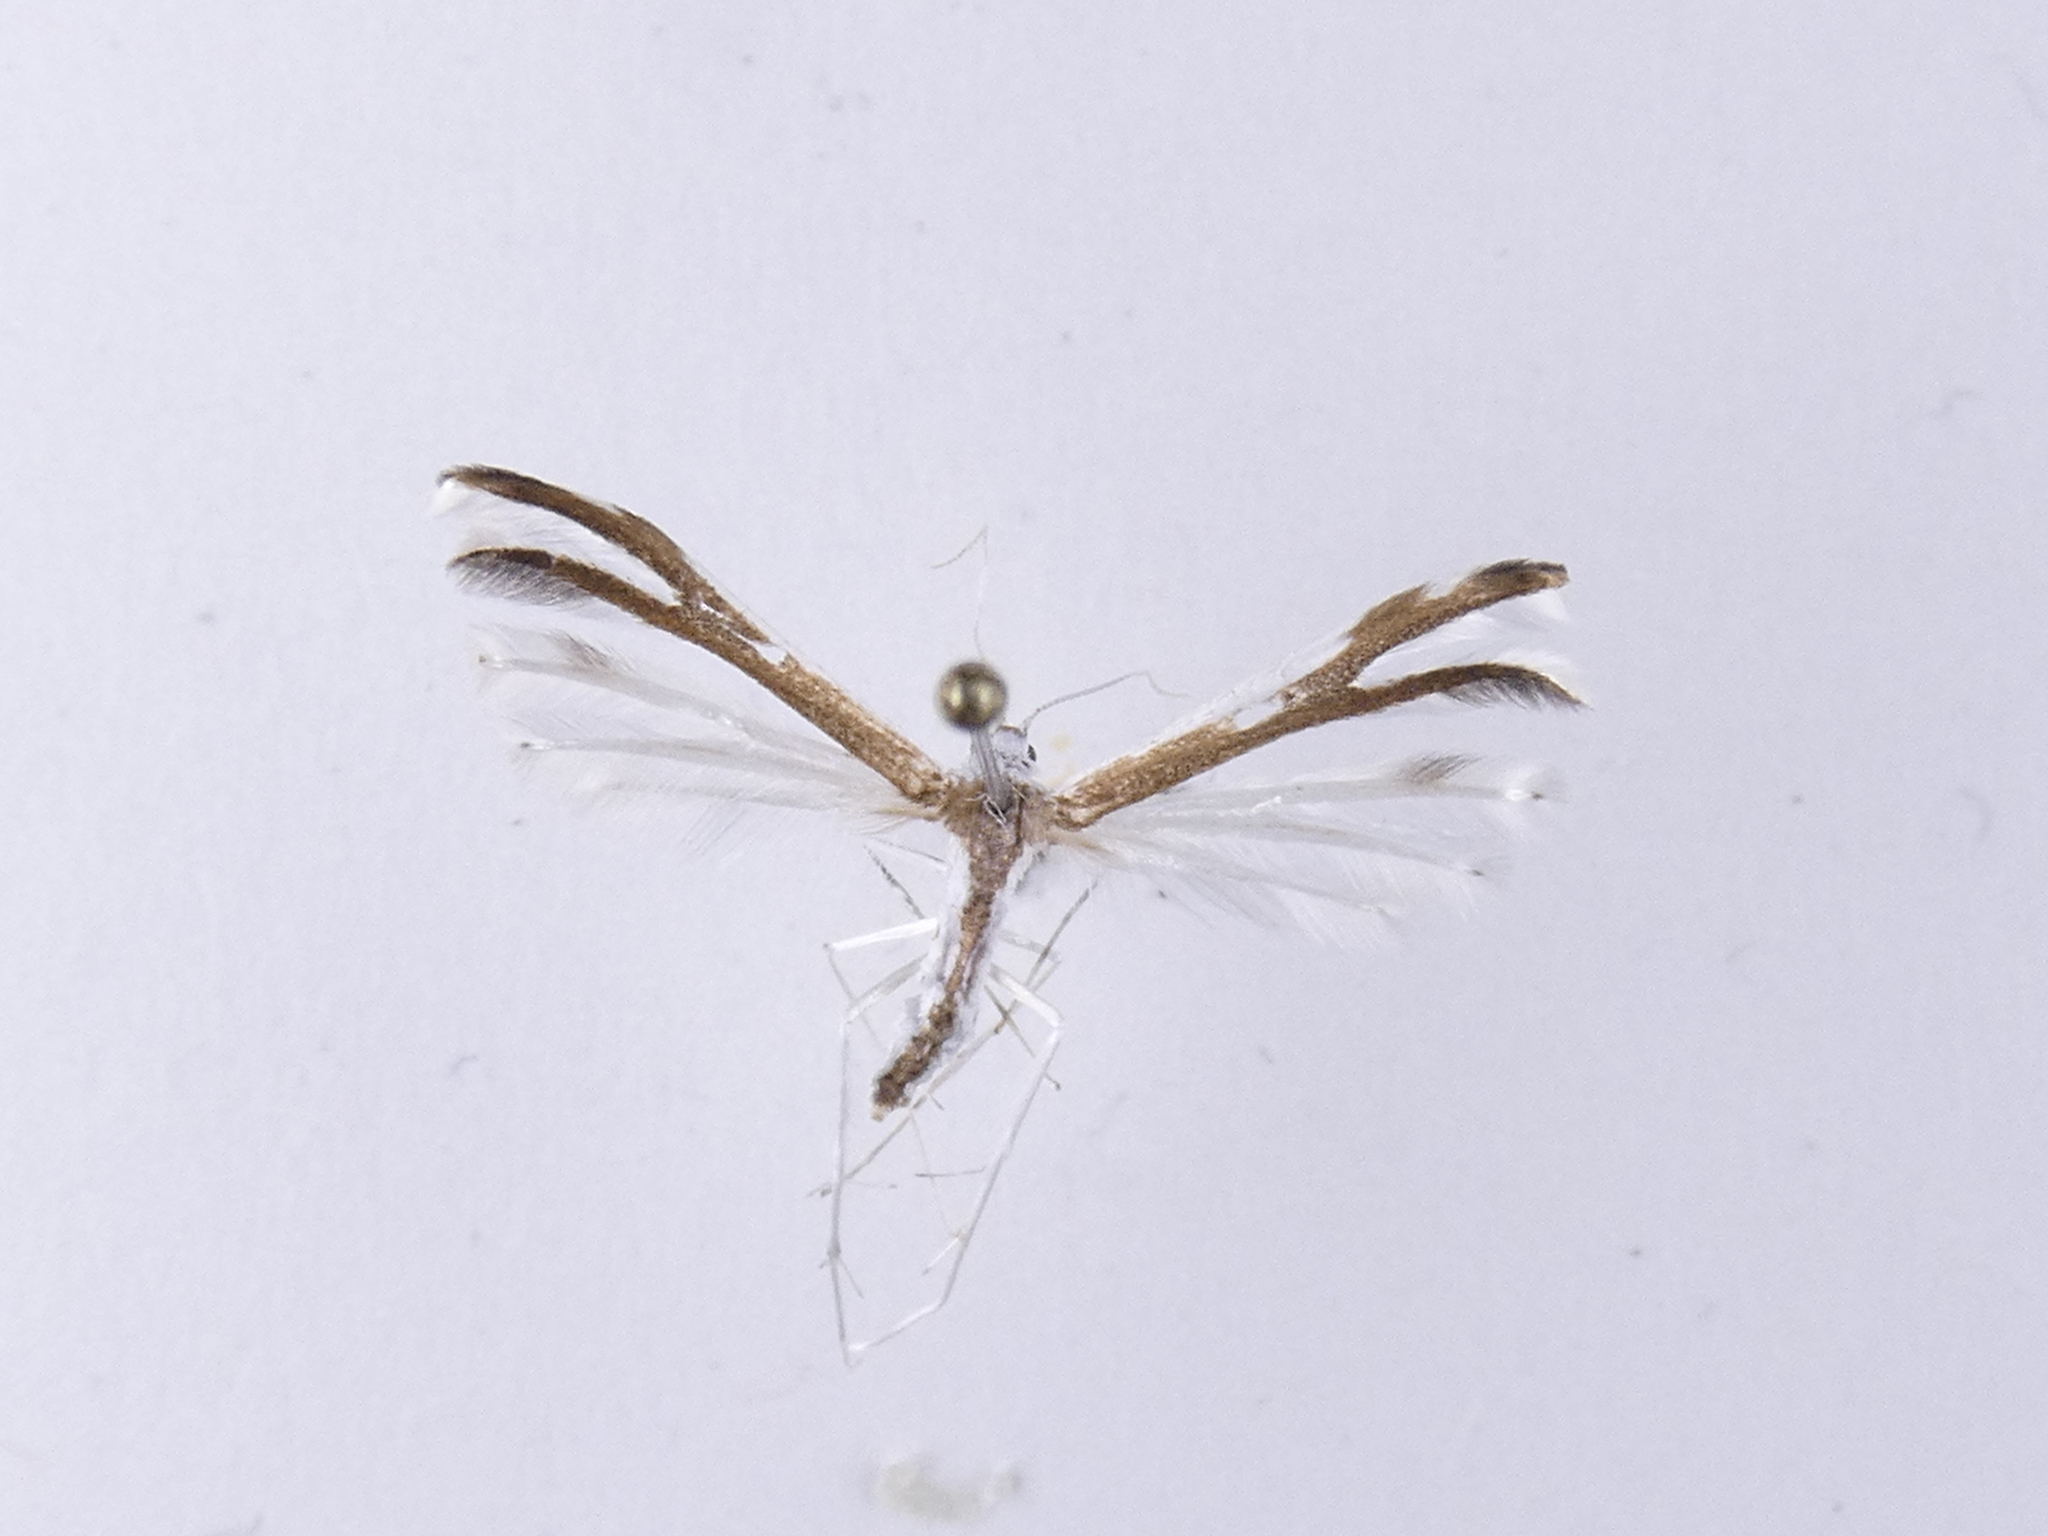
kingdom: Animalia
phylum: Arthropoda
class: Insecta
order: Lepidoptera
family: Pterophoridae
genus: Pterophorus
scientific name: Pterophorus furcatalis
